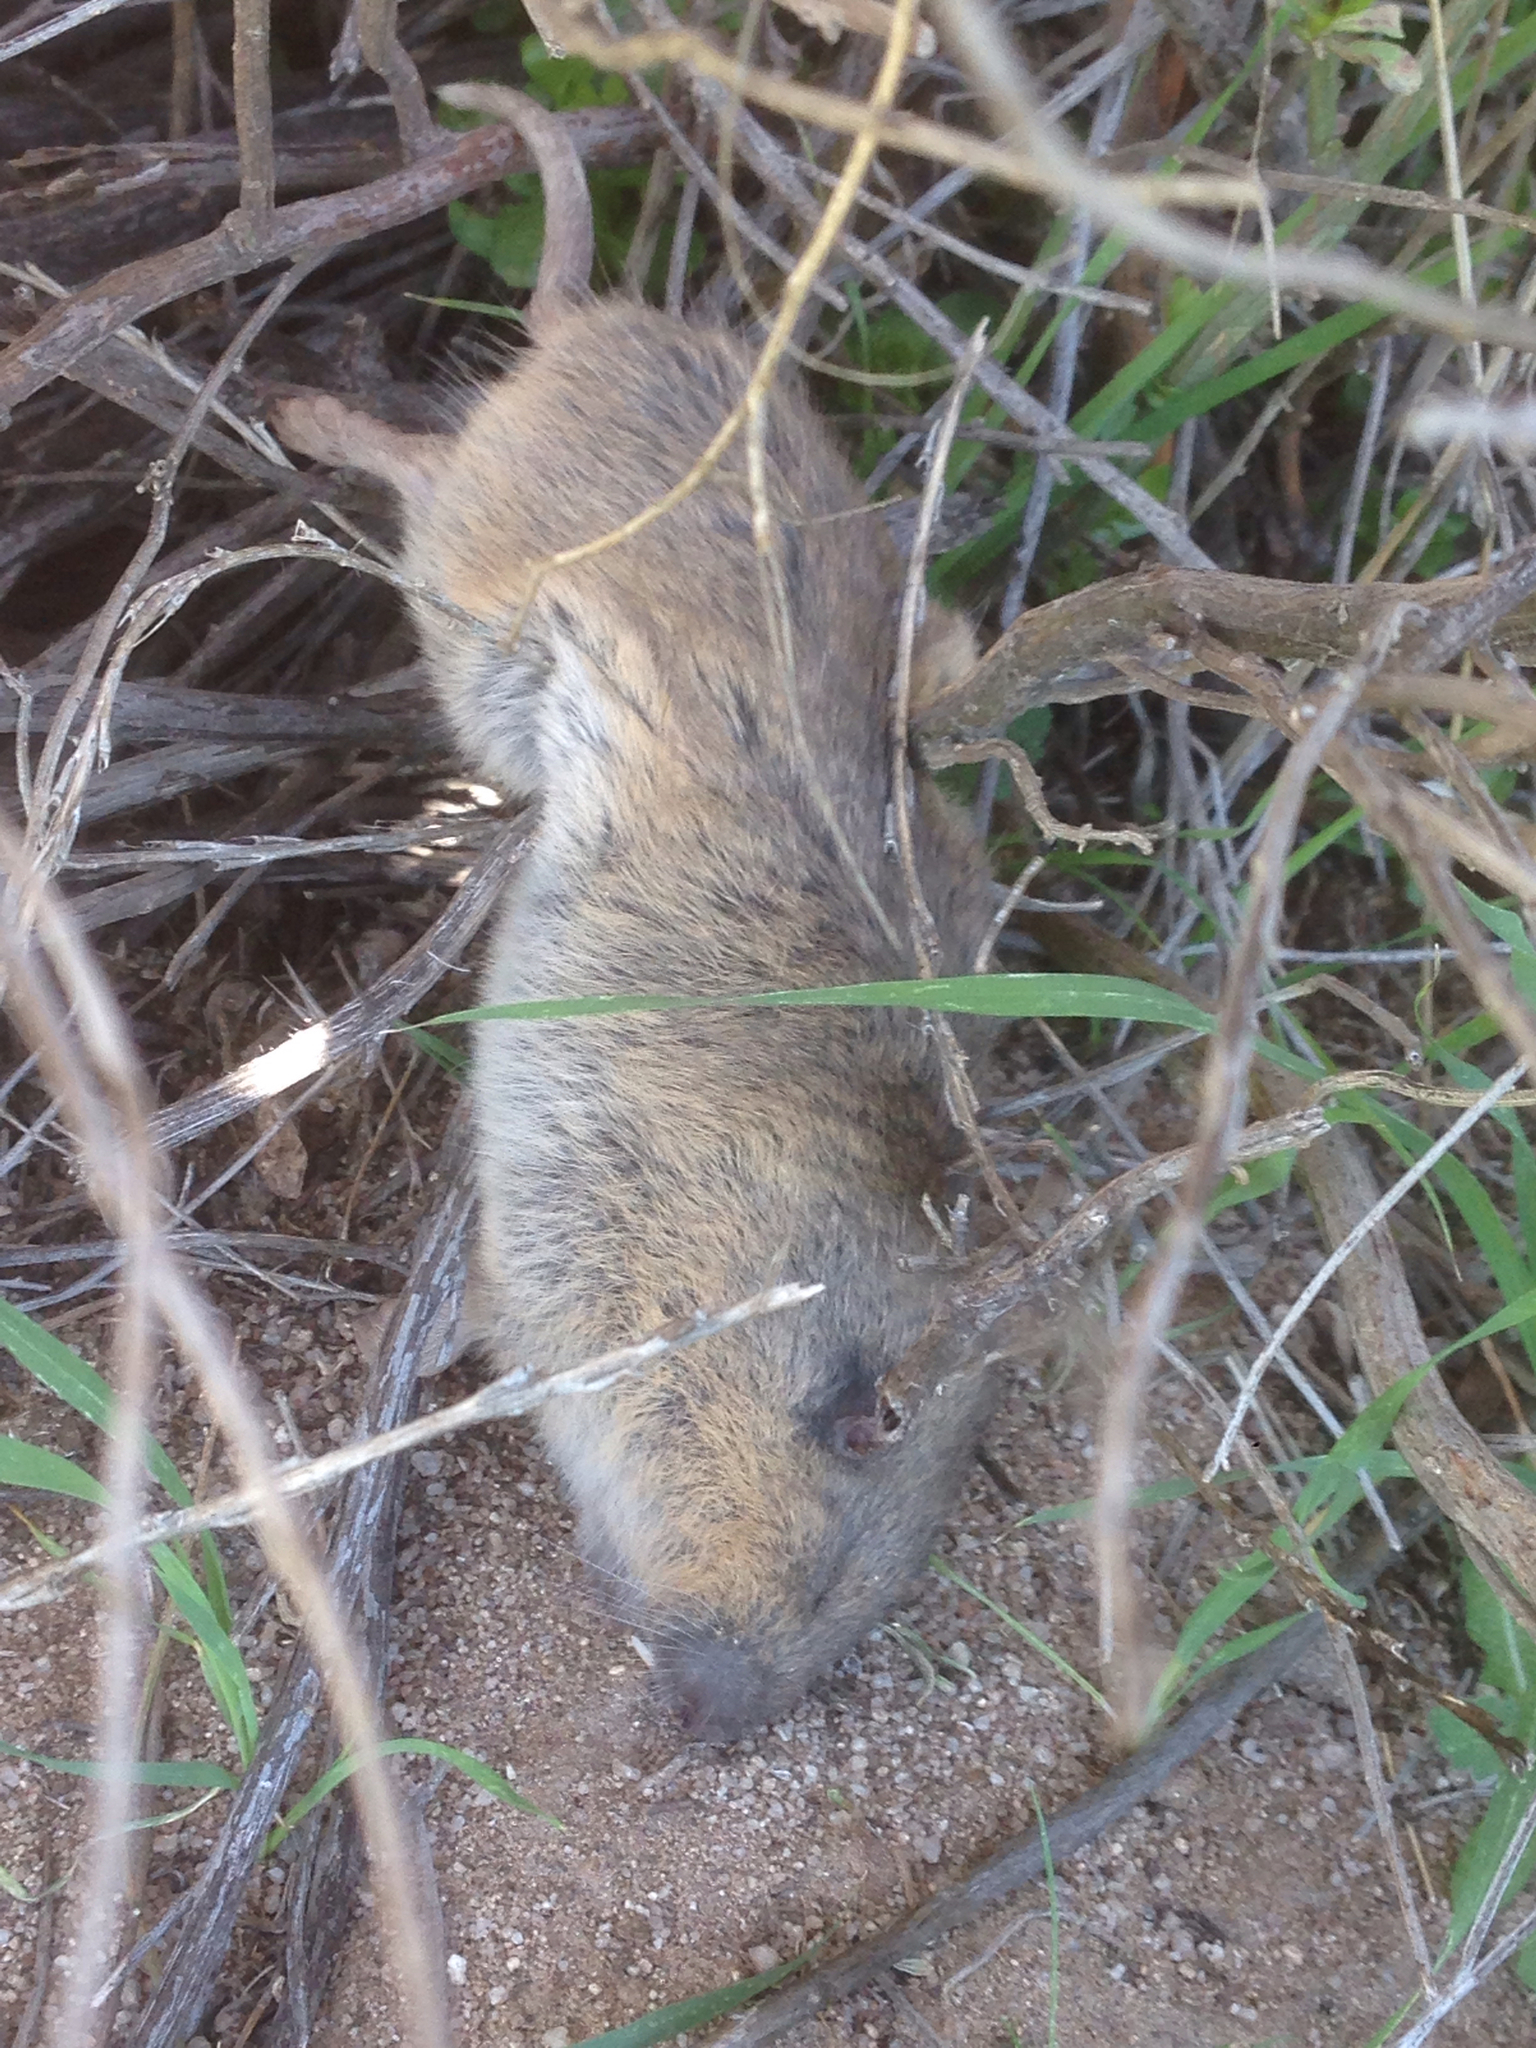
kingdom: Animalia
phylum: Chordata
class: Mammalia
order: Rodentia
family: Geomyidae
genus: Thomomys
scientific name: Thomomys bottae
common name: Botta's pocket gopher
